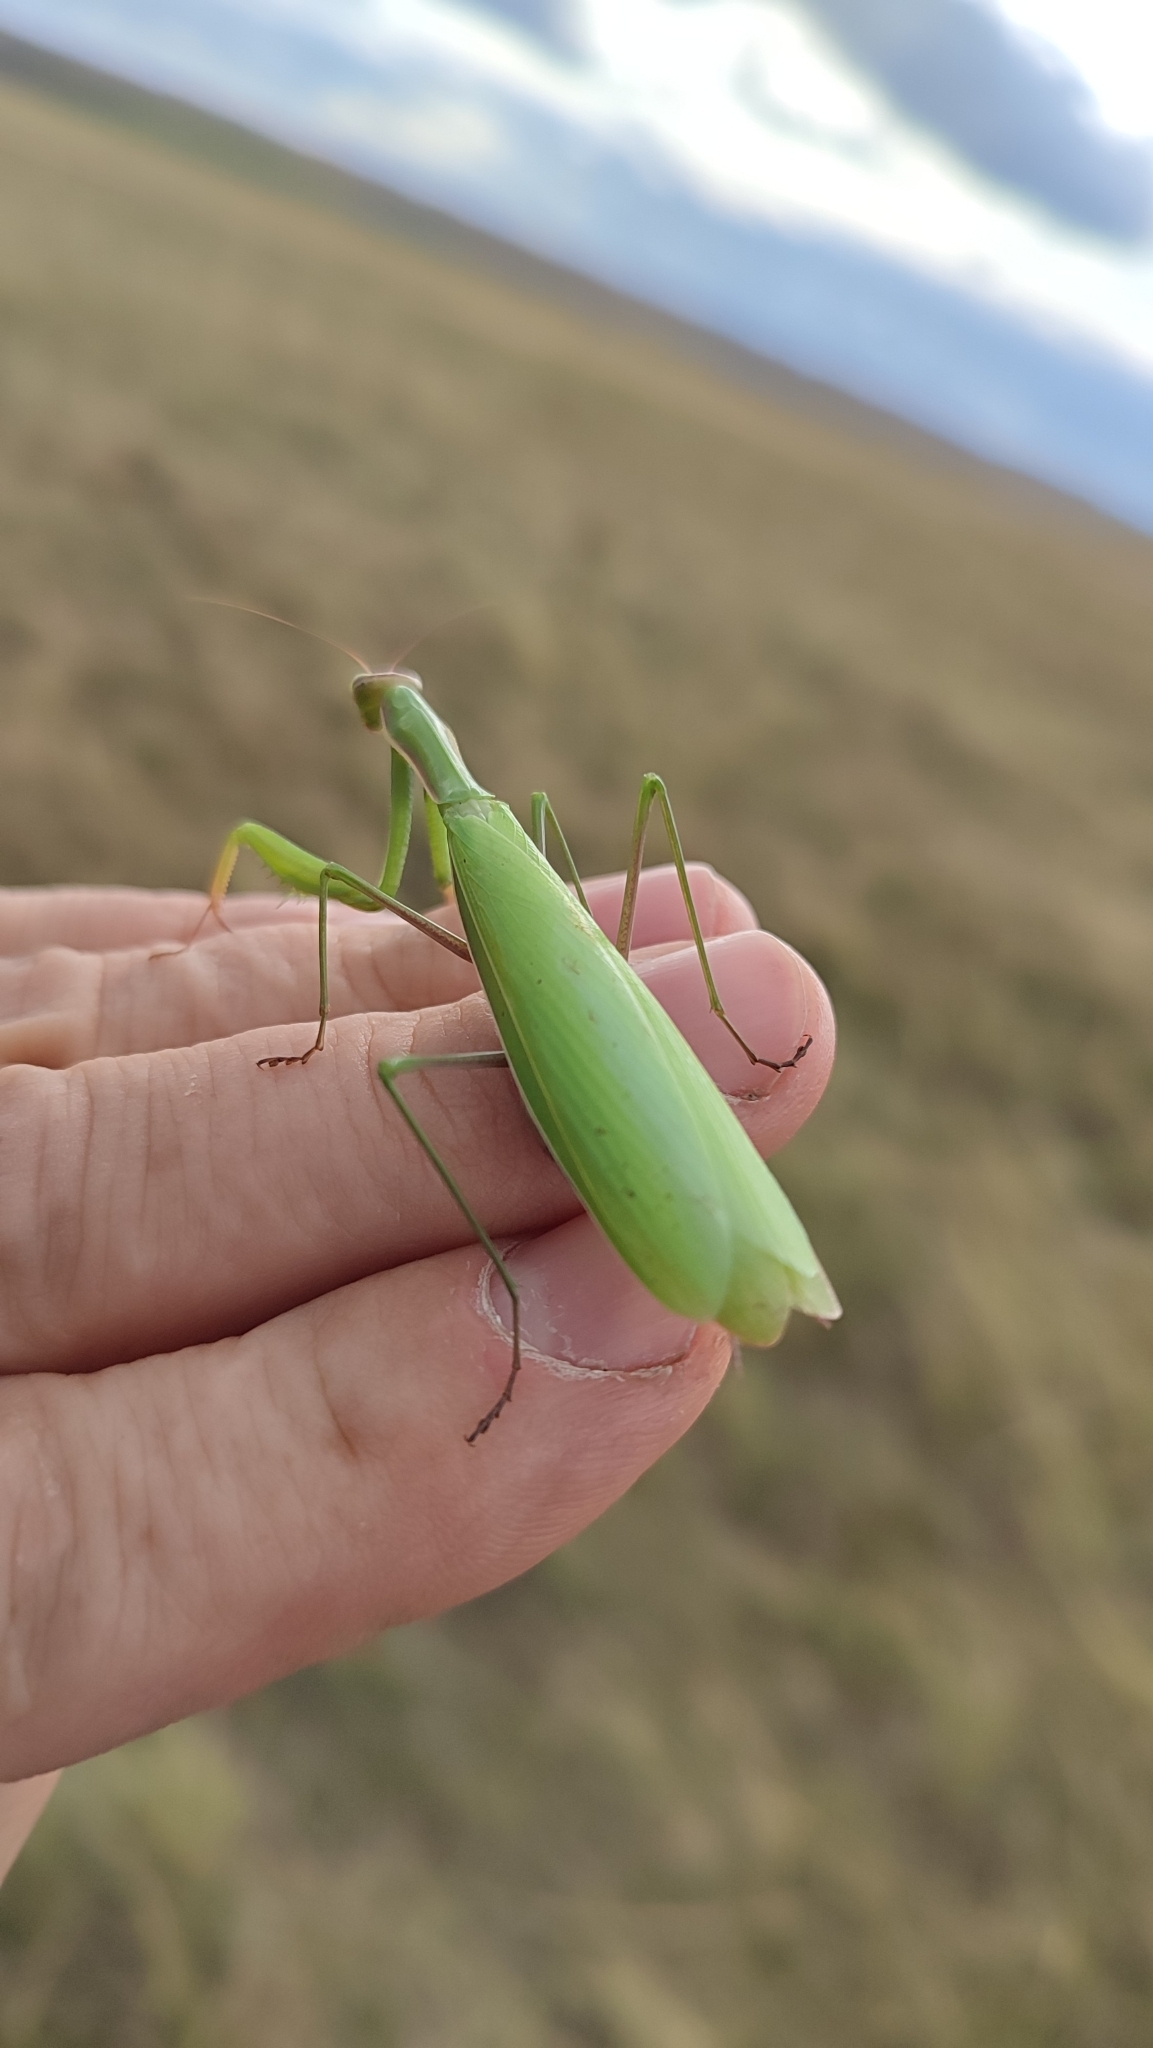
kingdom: Animalia
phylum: Arthropoda
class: Insecta
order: Mantodea
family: Mantidae
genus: Mantis
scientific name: Mantis religiosa
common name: Praying mantis
